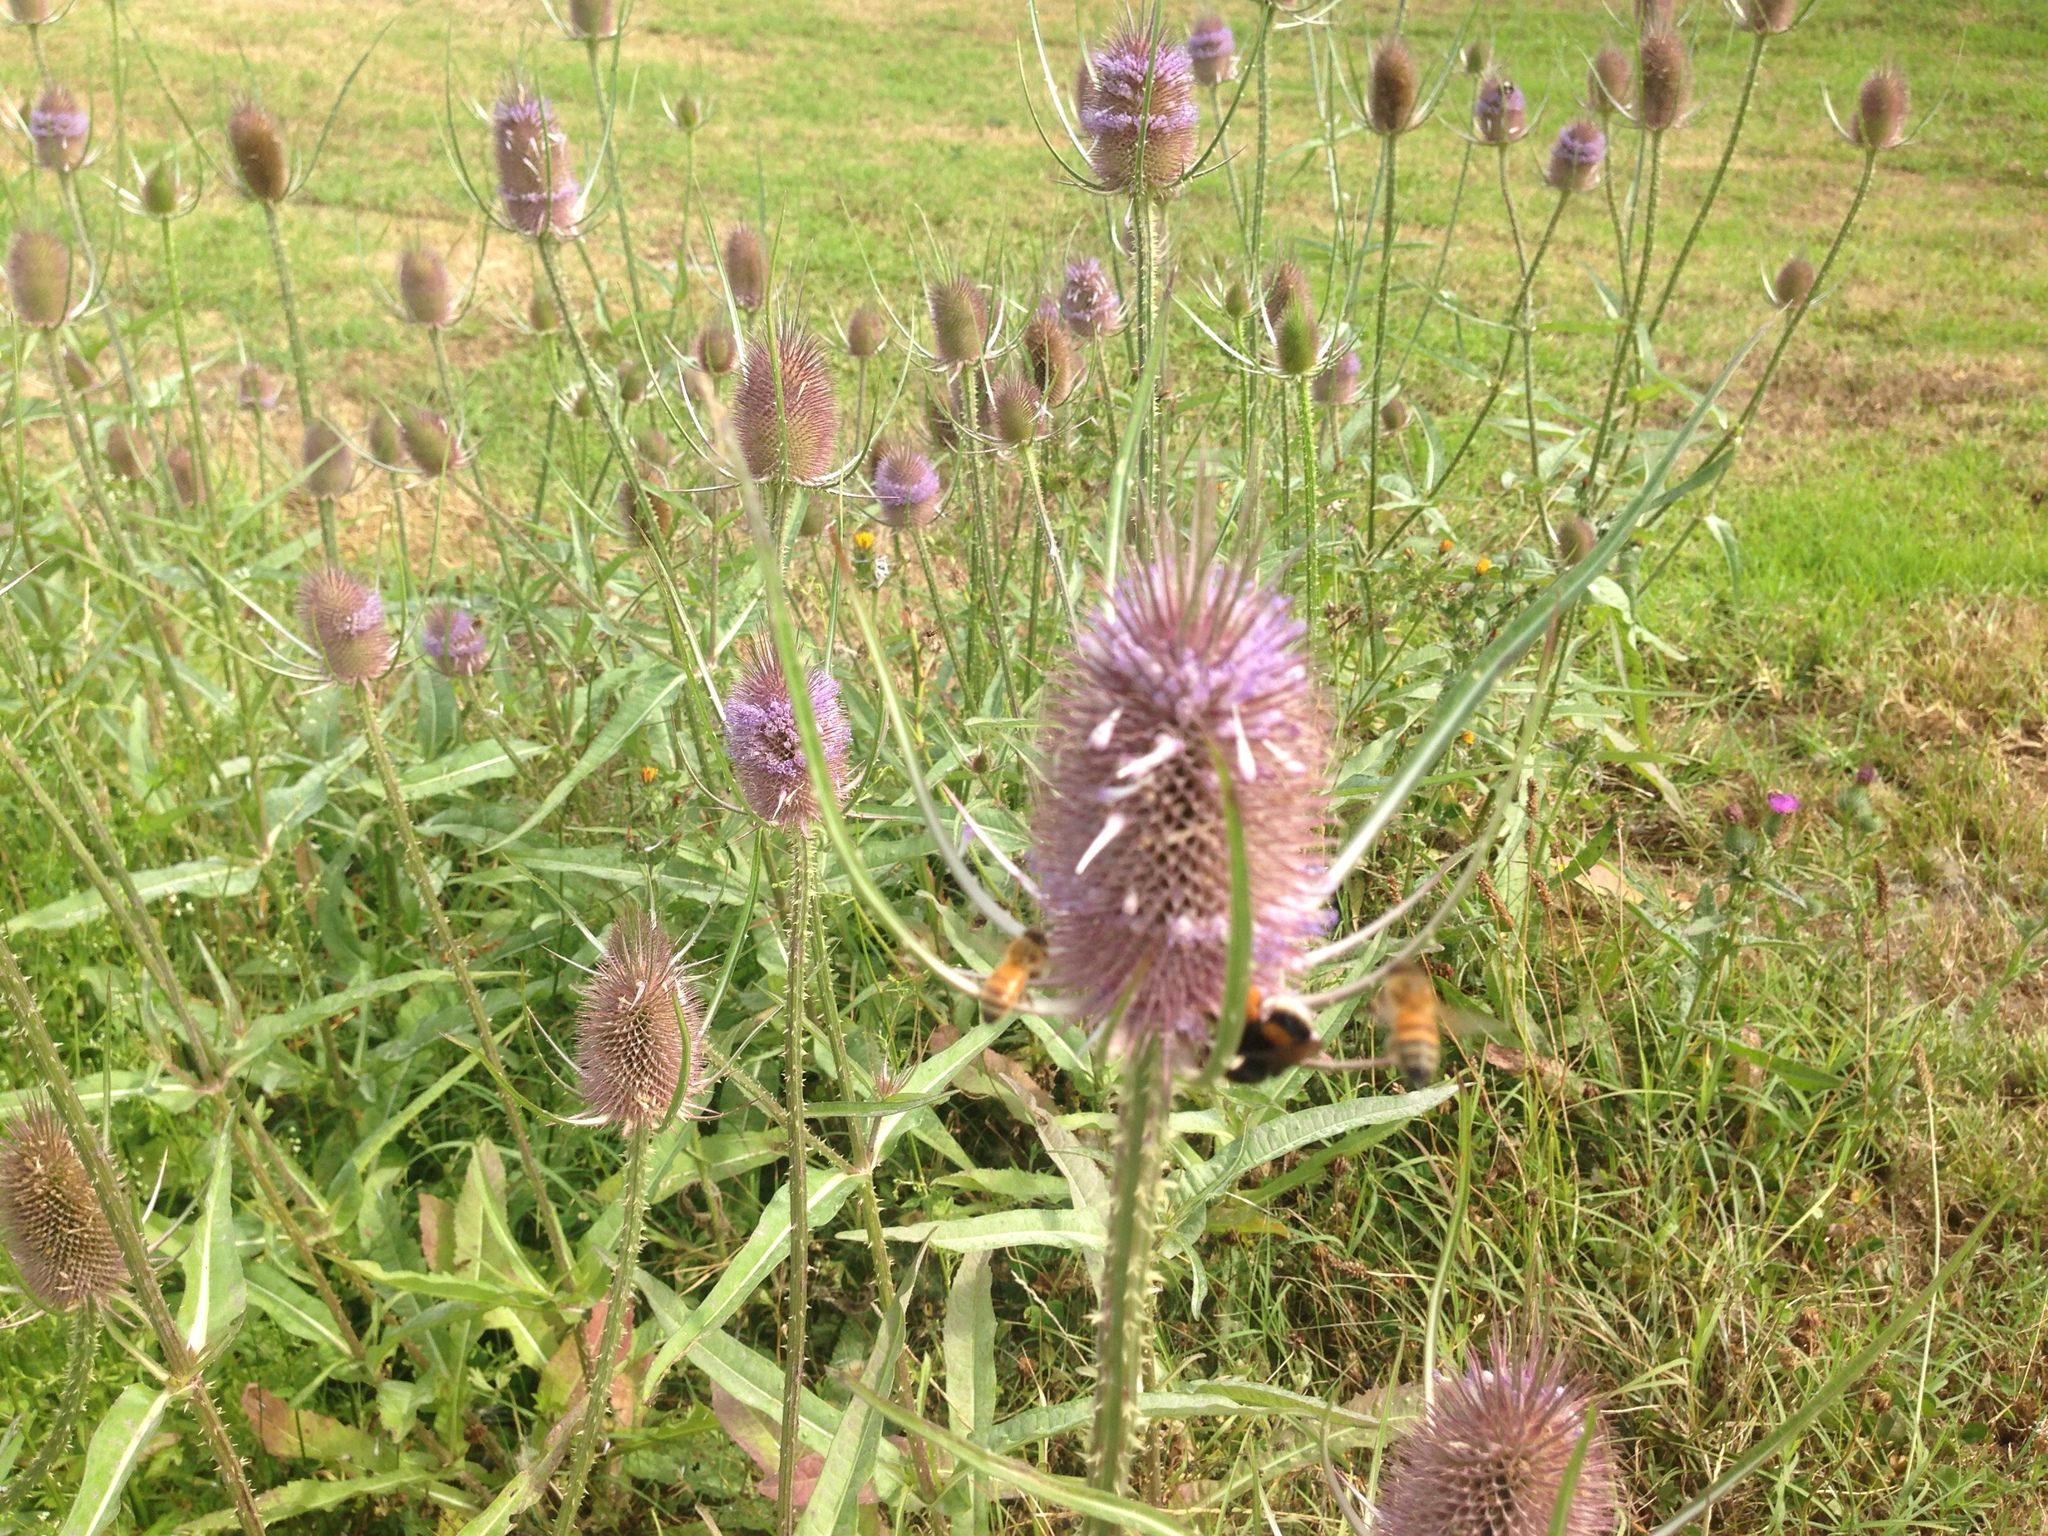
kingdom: Plantae
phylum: Tracheophyta
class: Magnoliopsida
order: Dipsacales
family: Caprifoliaceae
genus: Dipsacus
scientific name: Dipsacus fullonum
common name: Teasel
